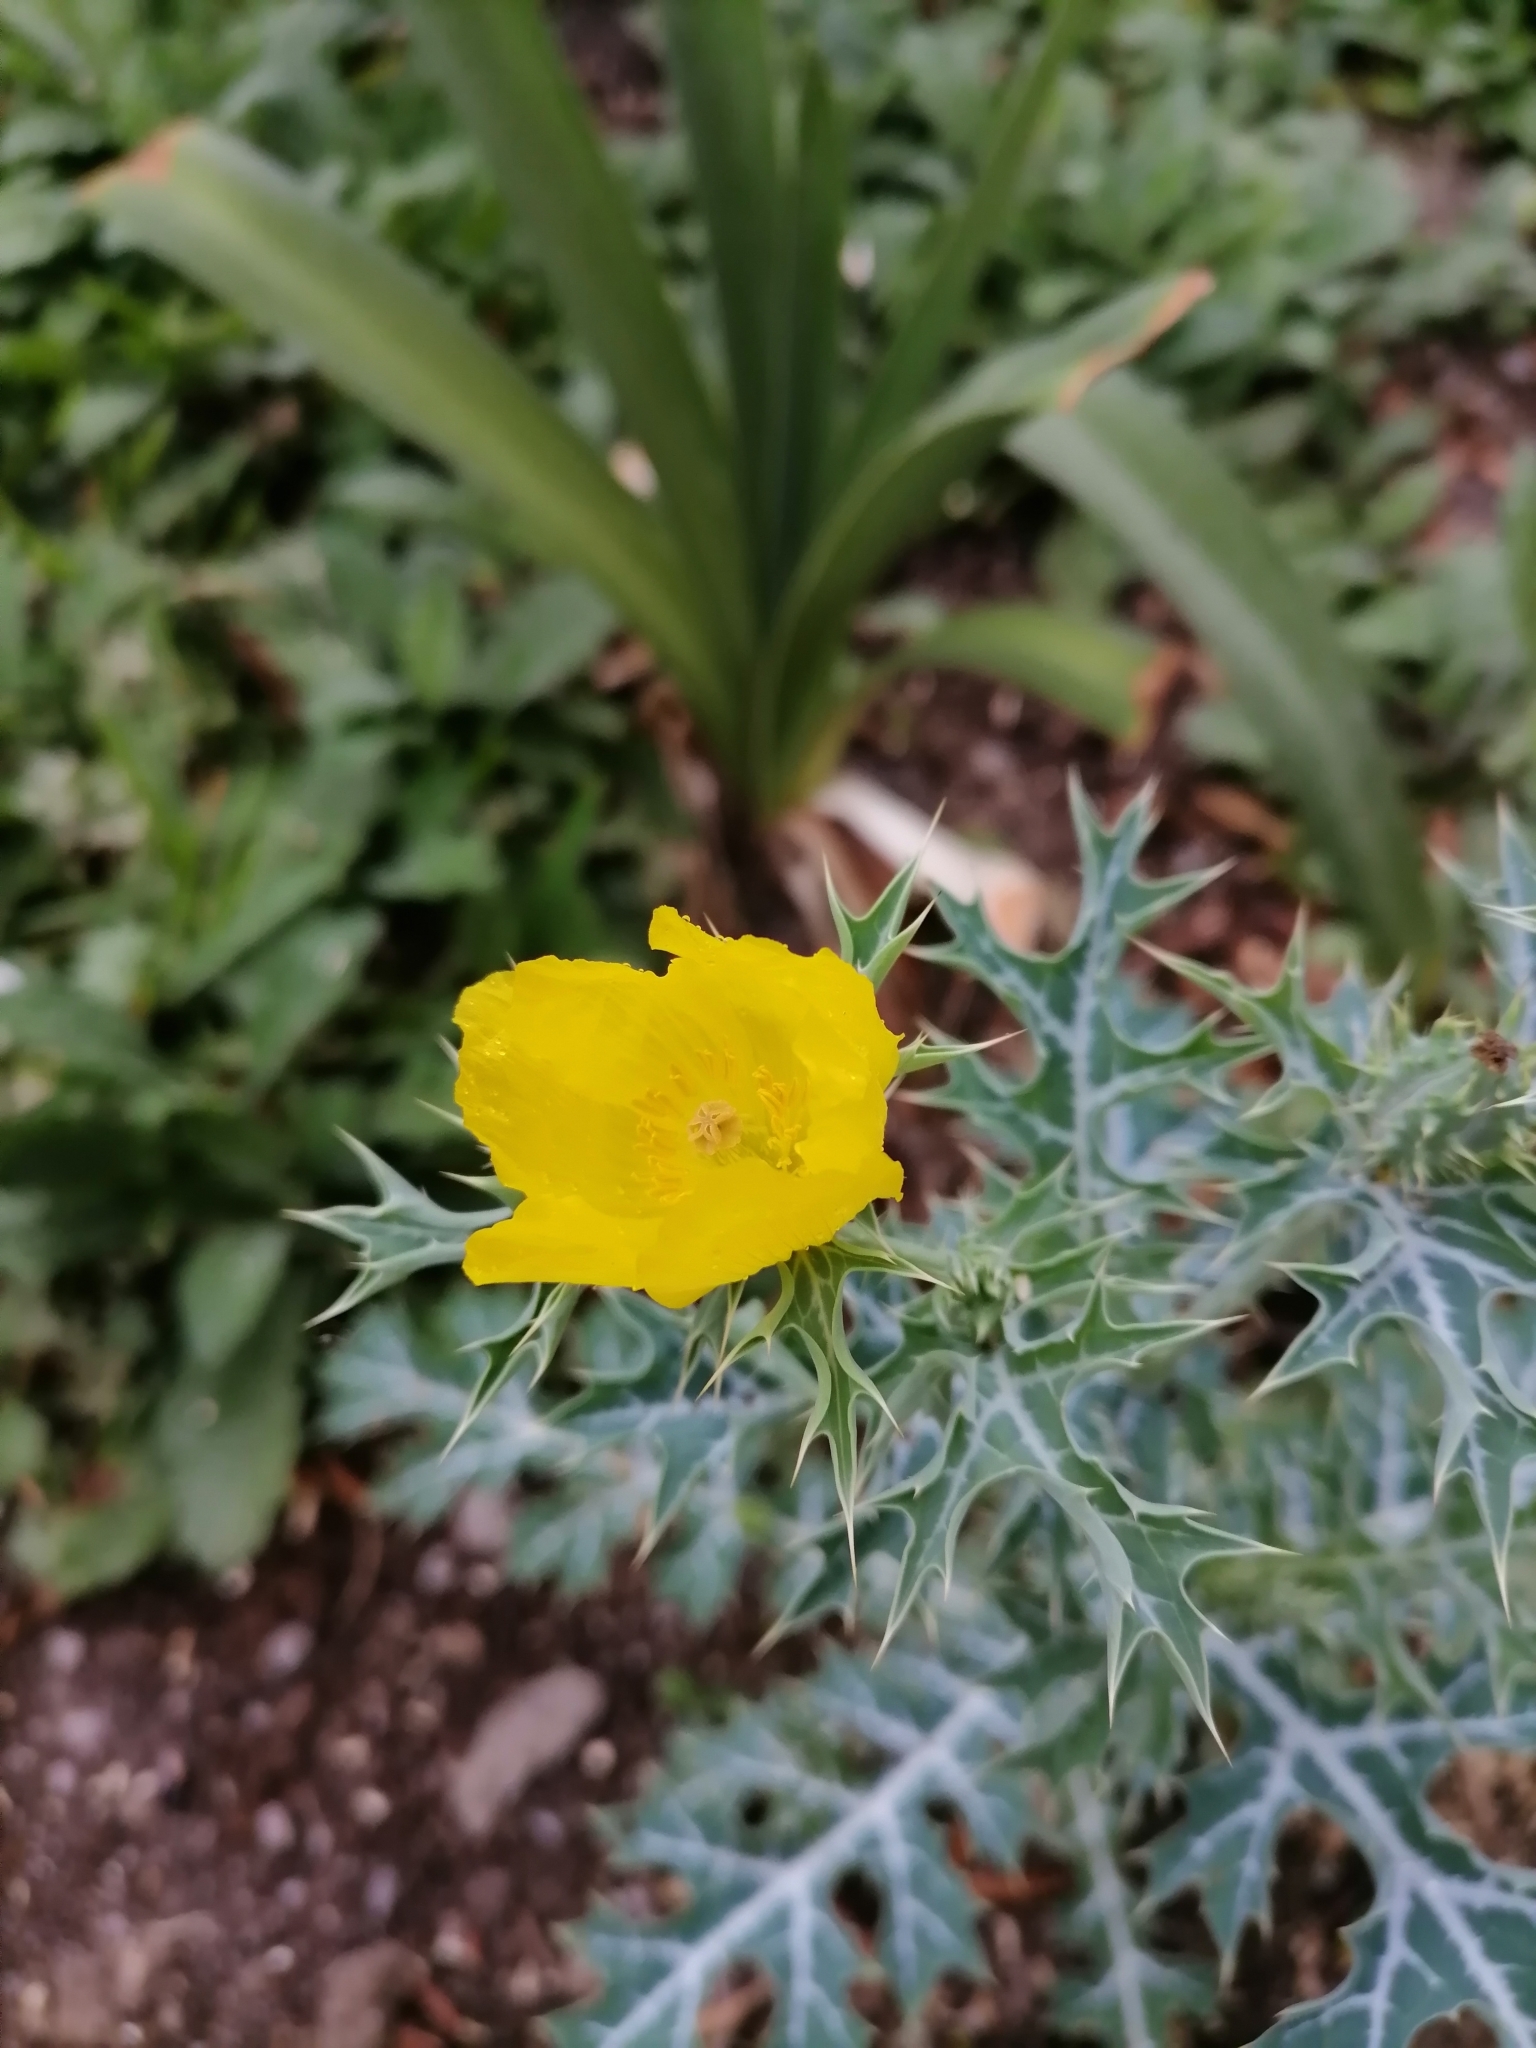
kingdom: Plantae
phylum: Tracheophyta
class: Magnoliopsida
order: Ranunculales
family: Papaveraceae
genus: Argemone
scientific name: Argemone mexicana
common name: Mexican poppy
